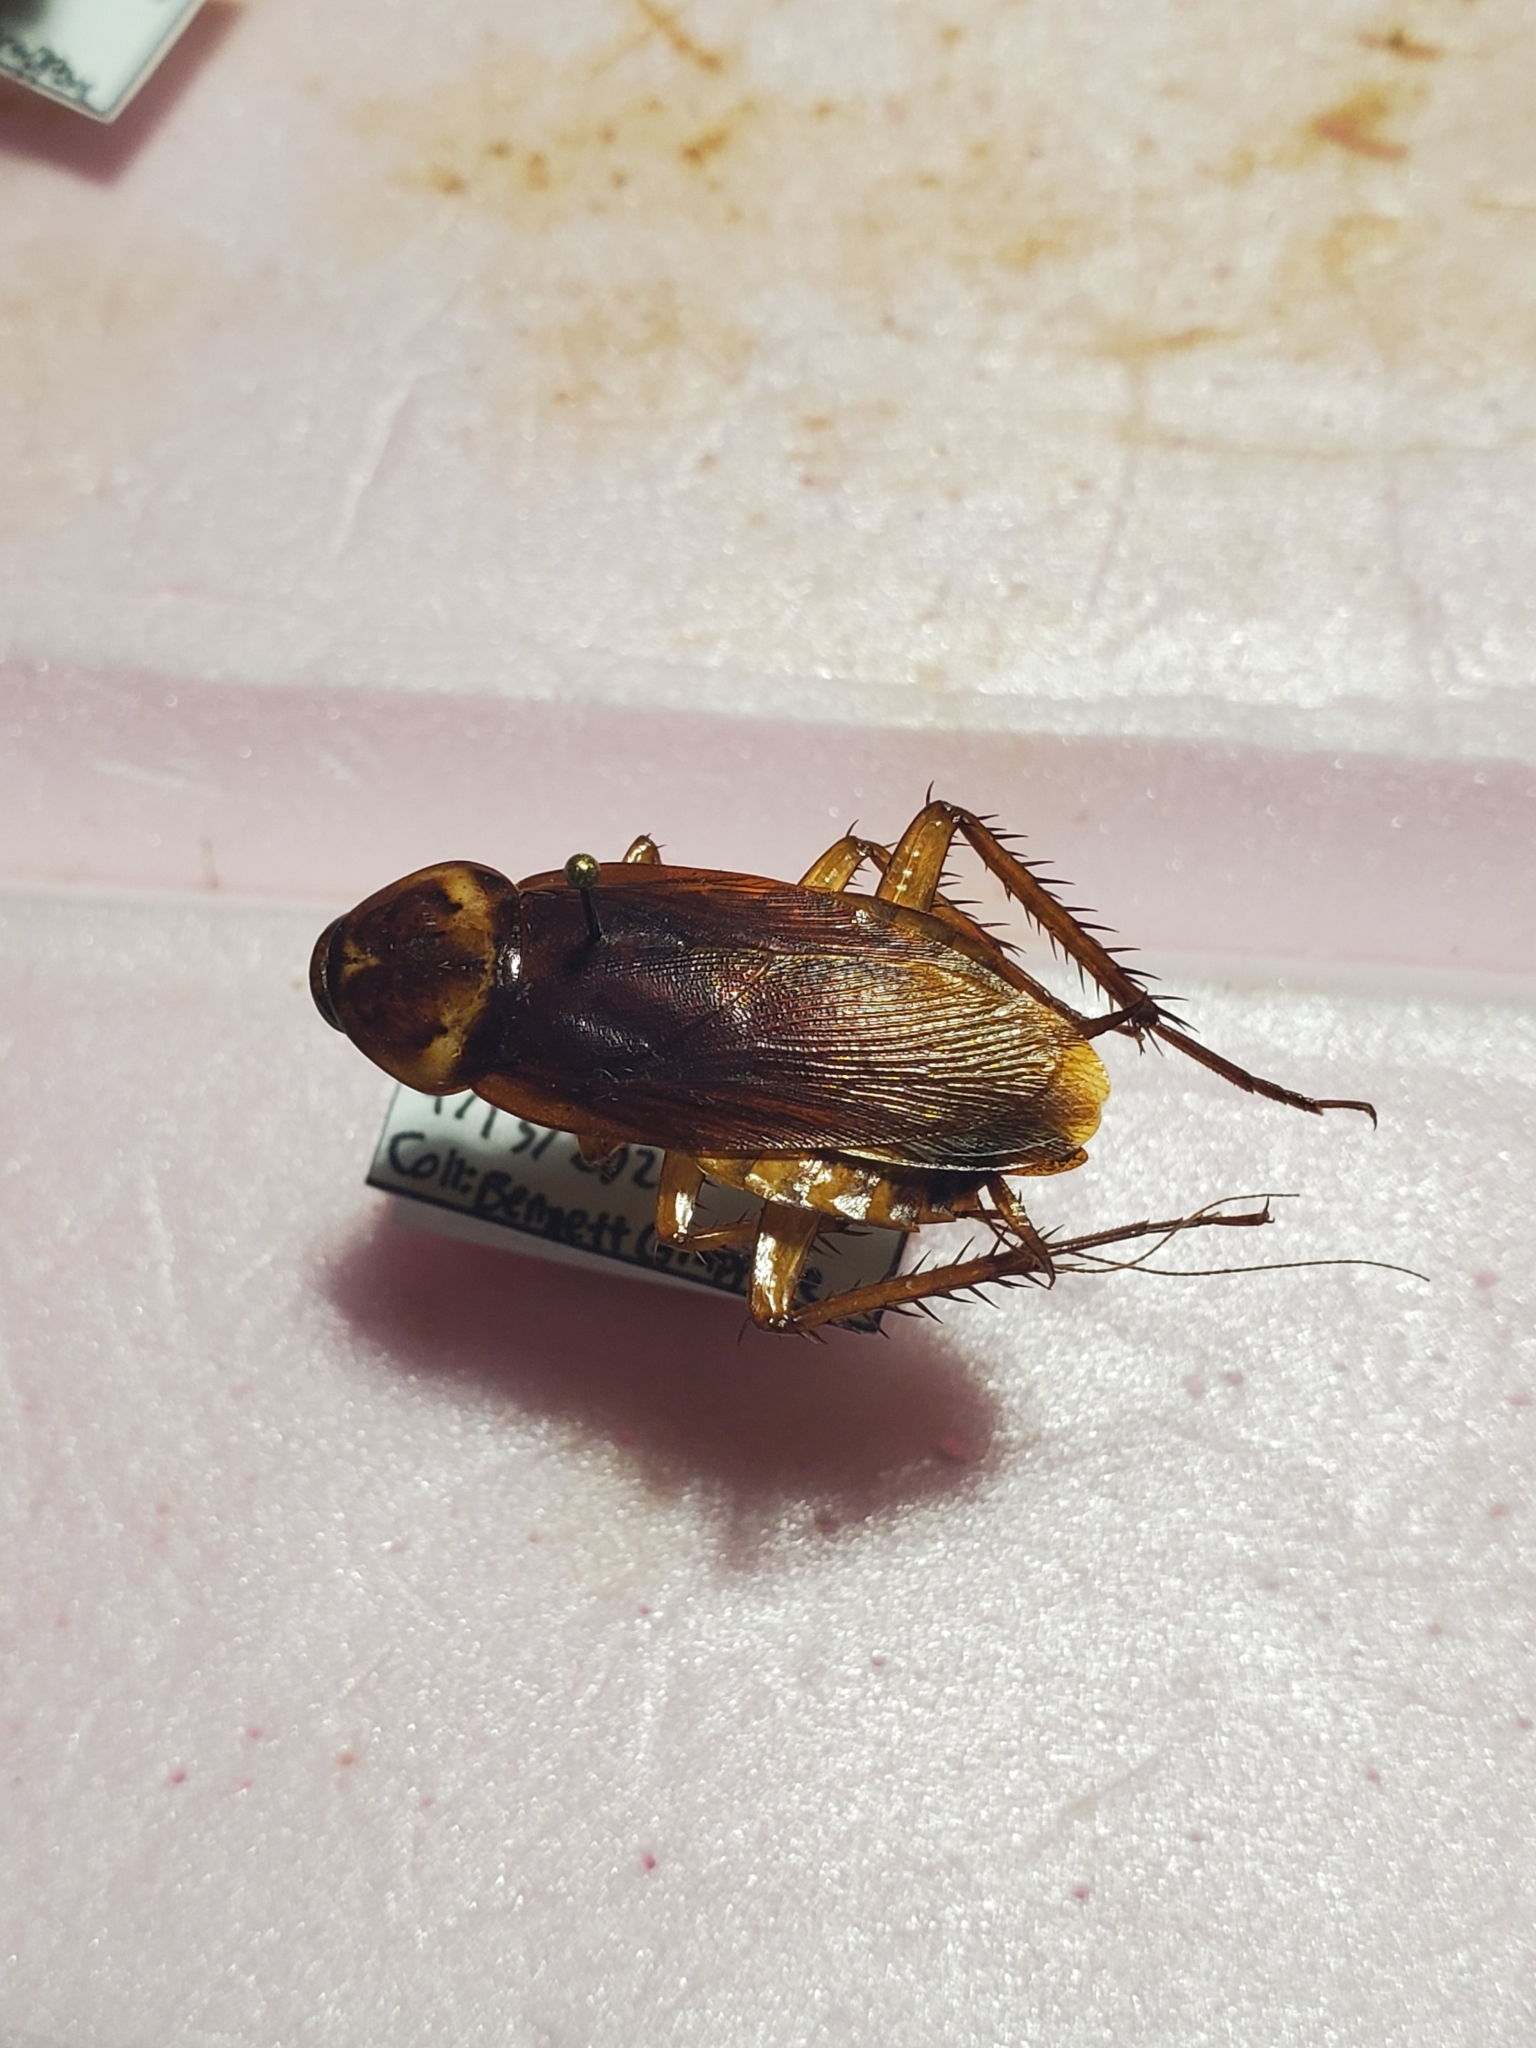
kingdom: Animalia
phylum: Arthropoda
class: Insecta
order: Blattodea
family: Blattidae
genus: Periplaneta
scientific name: Periplaneta americana
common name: American cockroach
